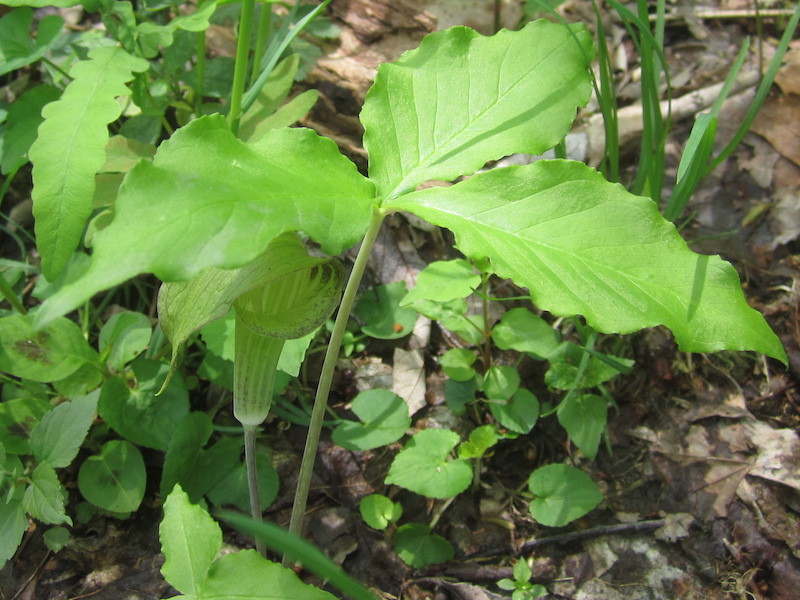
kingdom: Plantae
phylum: Tracheophyta
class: Liliopsida
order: Alismatales
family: Araceae
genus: Arisaema
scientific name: Arisaema triphyllum
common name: Jack-in-the-pulpit
